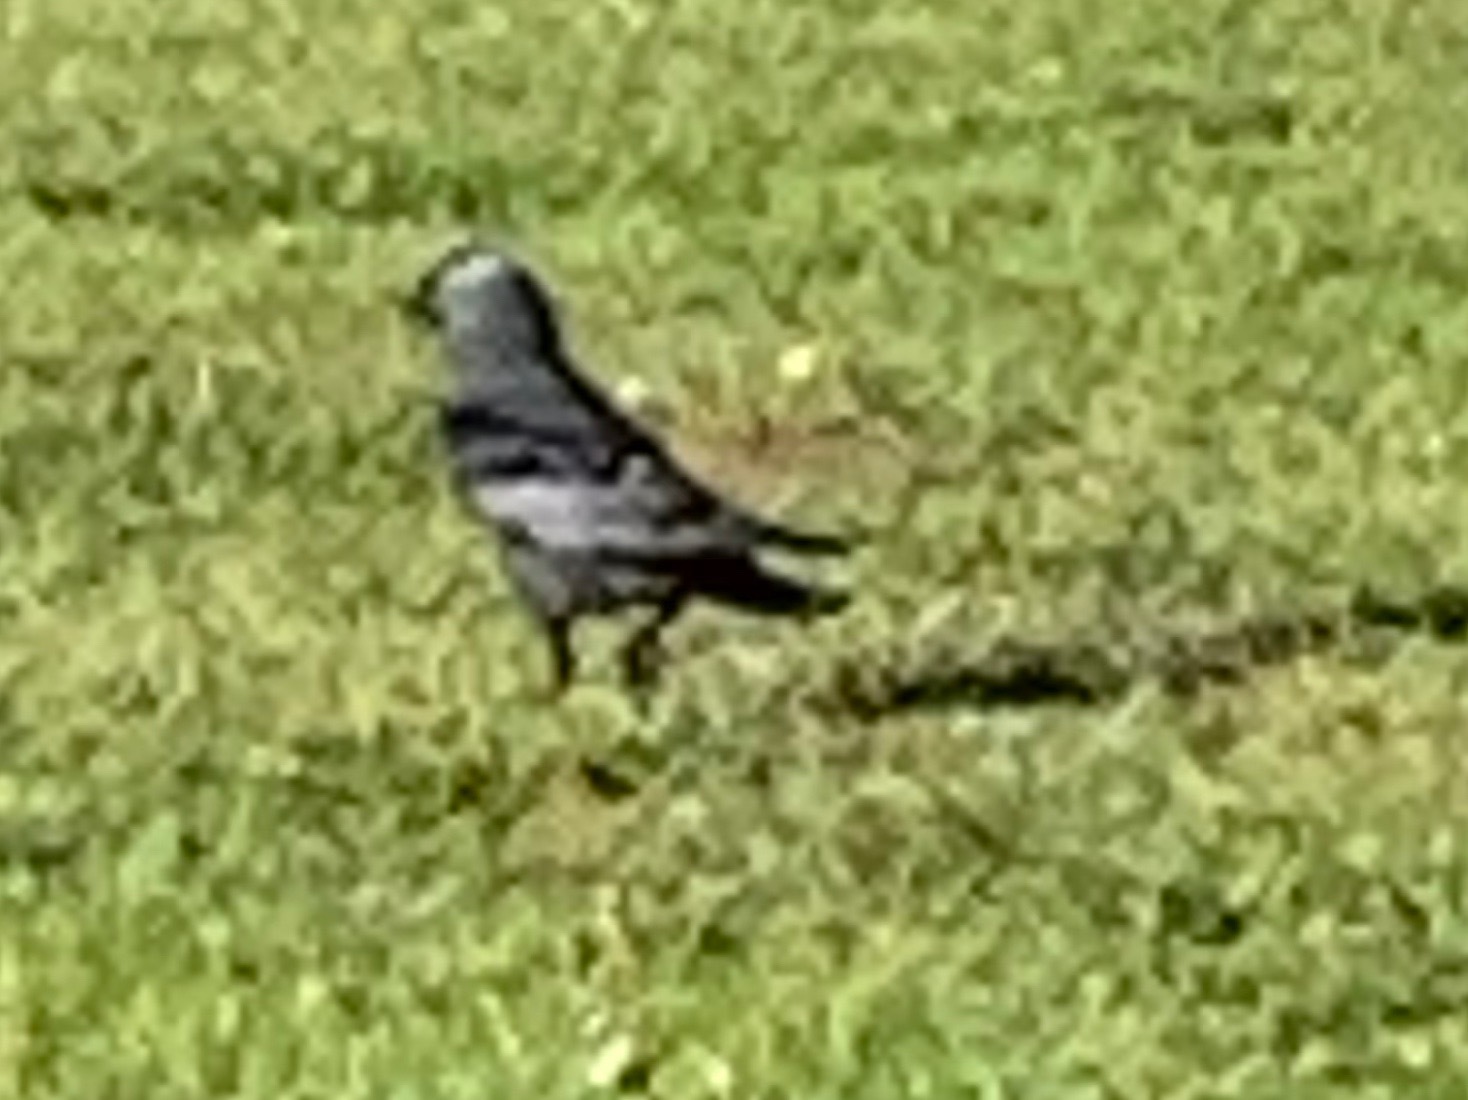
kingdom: Animalia
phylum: Chordata
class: Aves
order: Passeriformes
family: Corvidae
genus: Coloeus
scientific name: Coloeus monedula
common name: Western jackdaw
